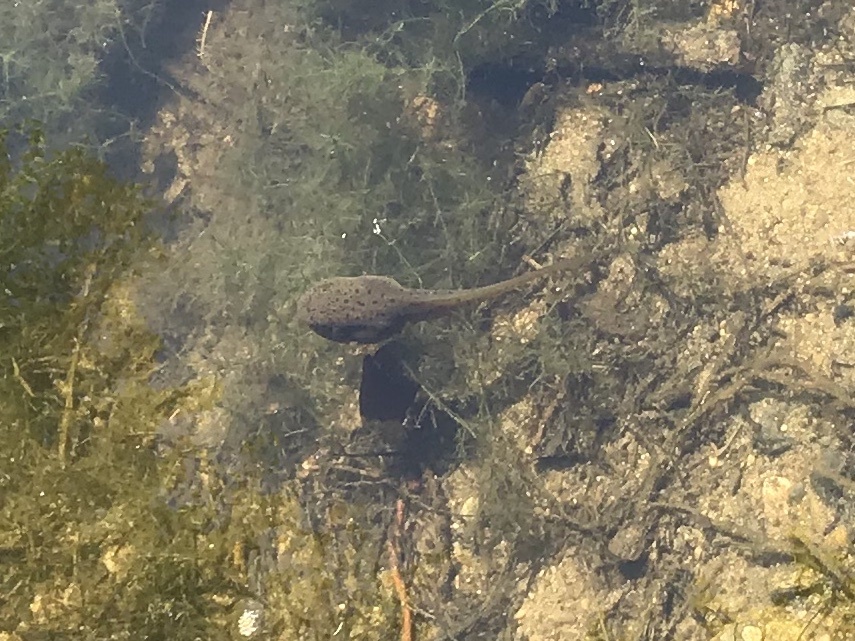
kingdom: Animalia
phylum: Chordata
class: Amphibia
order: Anura
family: Ranidae
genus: Lithobates
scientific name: Lithobates catesbeianus
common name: American bullfrog
